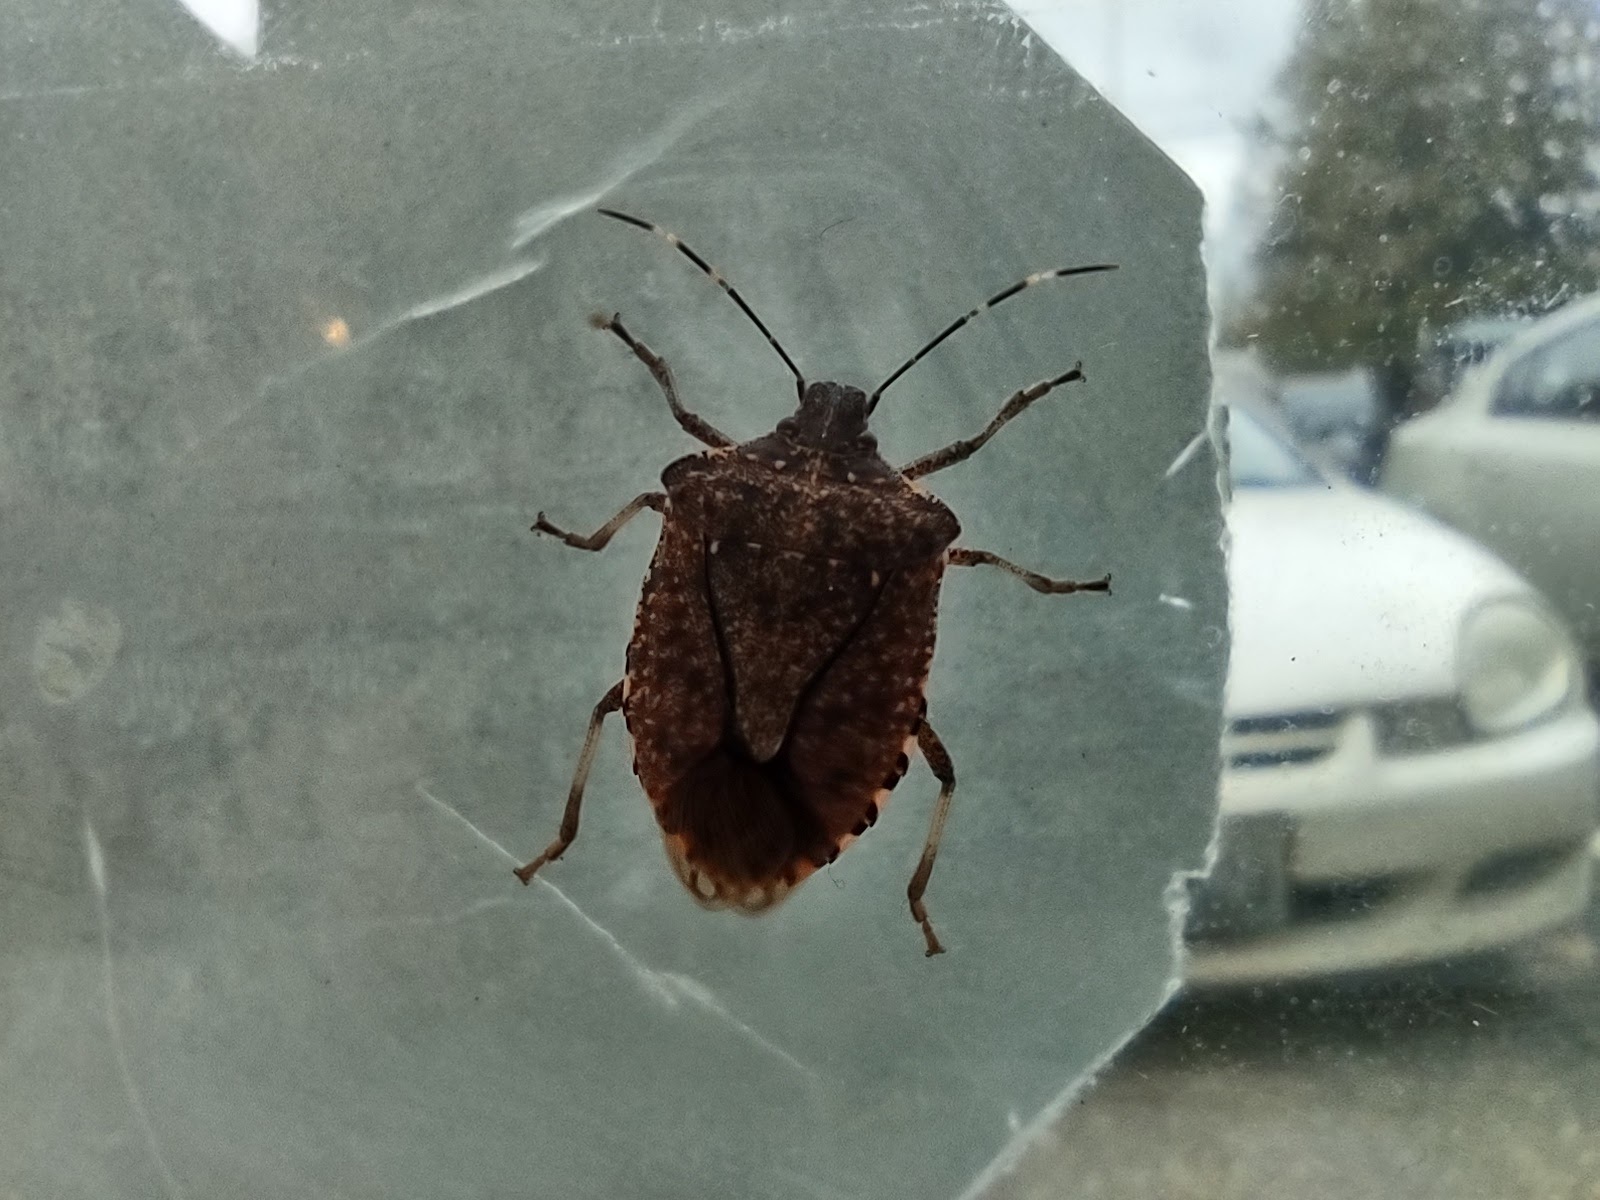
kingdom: Animalia
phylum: Arthropoda
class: Insecta
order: Hemiptera
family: Pentatomidae
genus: Halyomorpha
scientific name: Halyomorpha halys
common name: Brown marmorated stink bug
